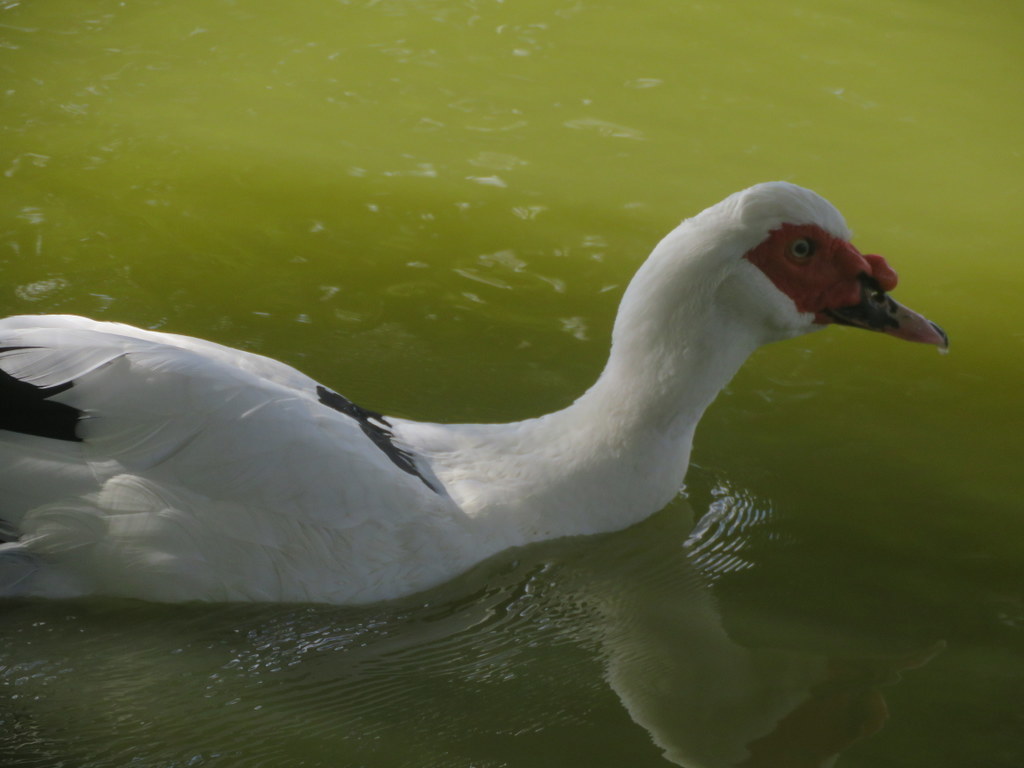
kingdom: Animalia
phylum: Chordata
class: Aves
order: Anseriformes
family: Anatidae
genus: Cairina
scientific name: Cairina moschata
